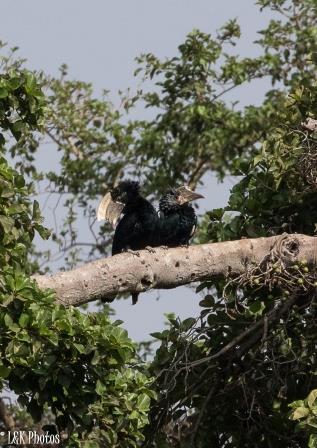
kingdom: Animalia
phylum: Chordata
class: Aves
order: Bucerotiformes
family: Bucerotidae
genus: Bycanistes
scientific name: Bycanistes brevis
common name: Silvery-cheeked hornbill
